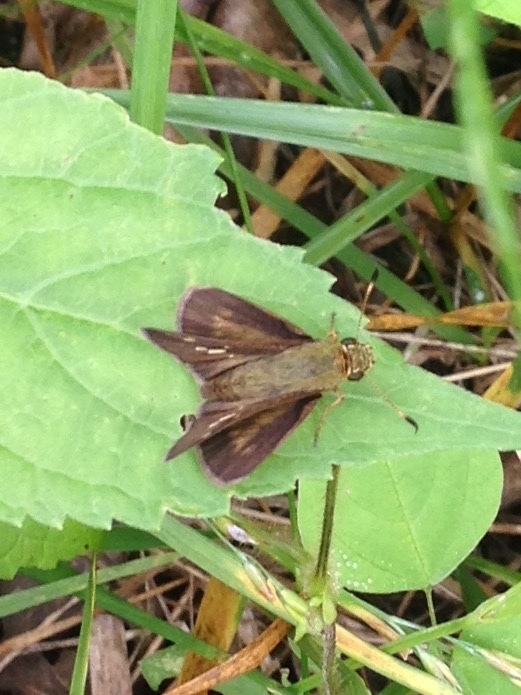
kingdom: Animalia
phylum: Arthropoda
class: Insecta
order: Lepidoptera
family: Hesperiidae
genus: Polites
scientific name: Polites egeremet
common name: Northern broken-dash
